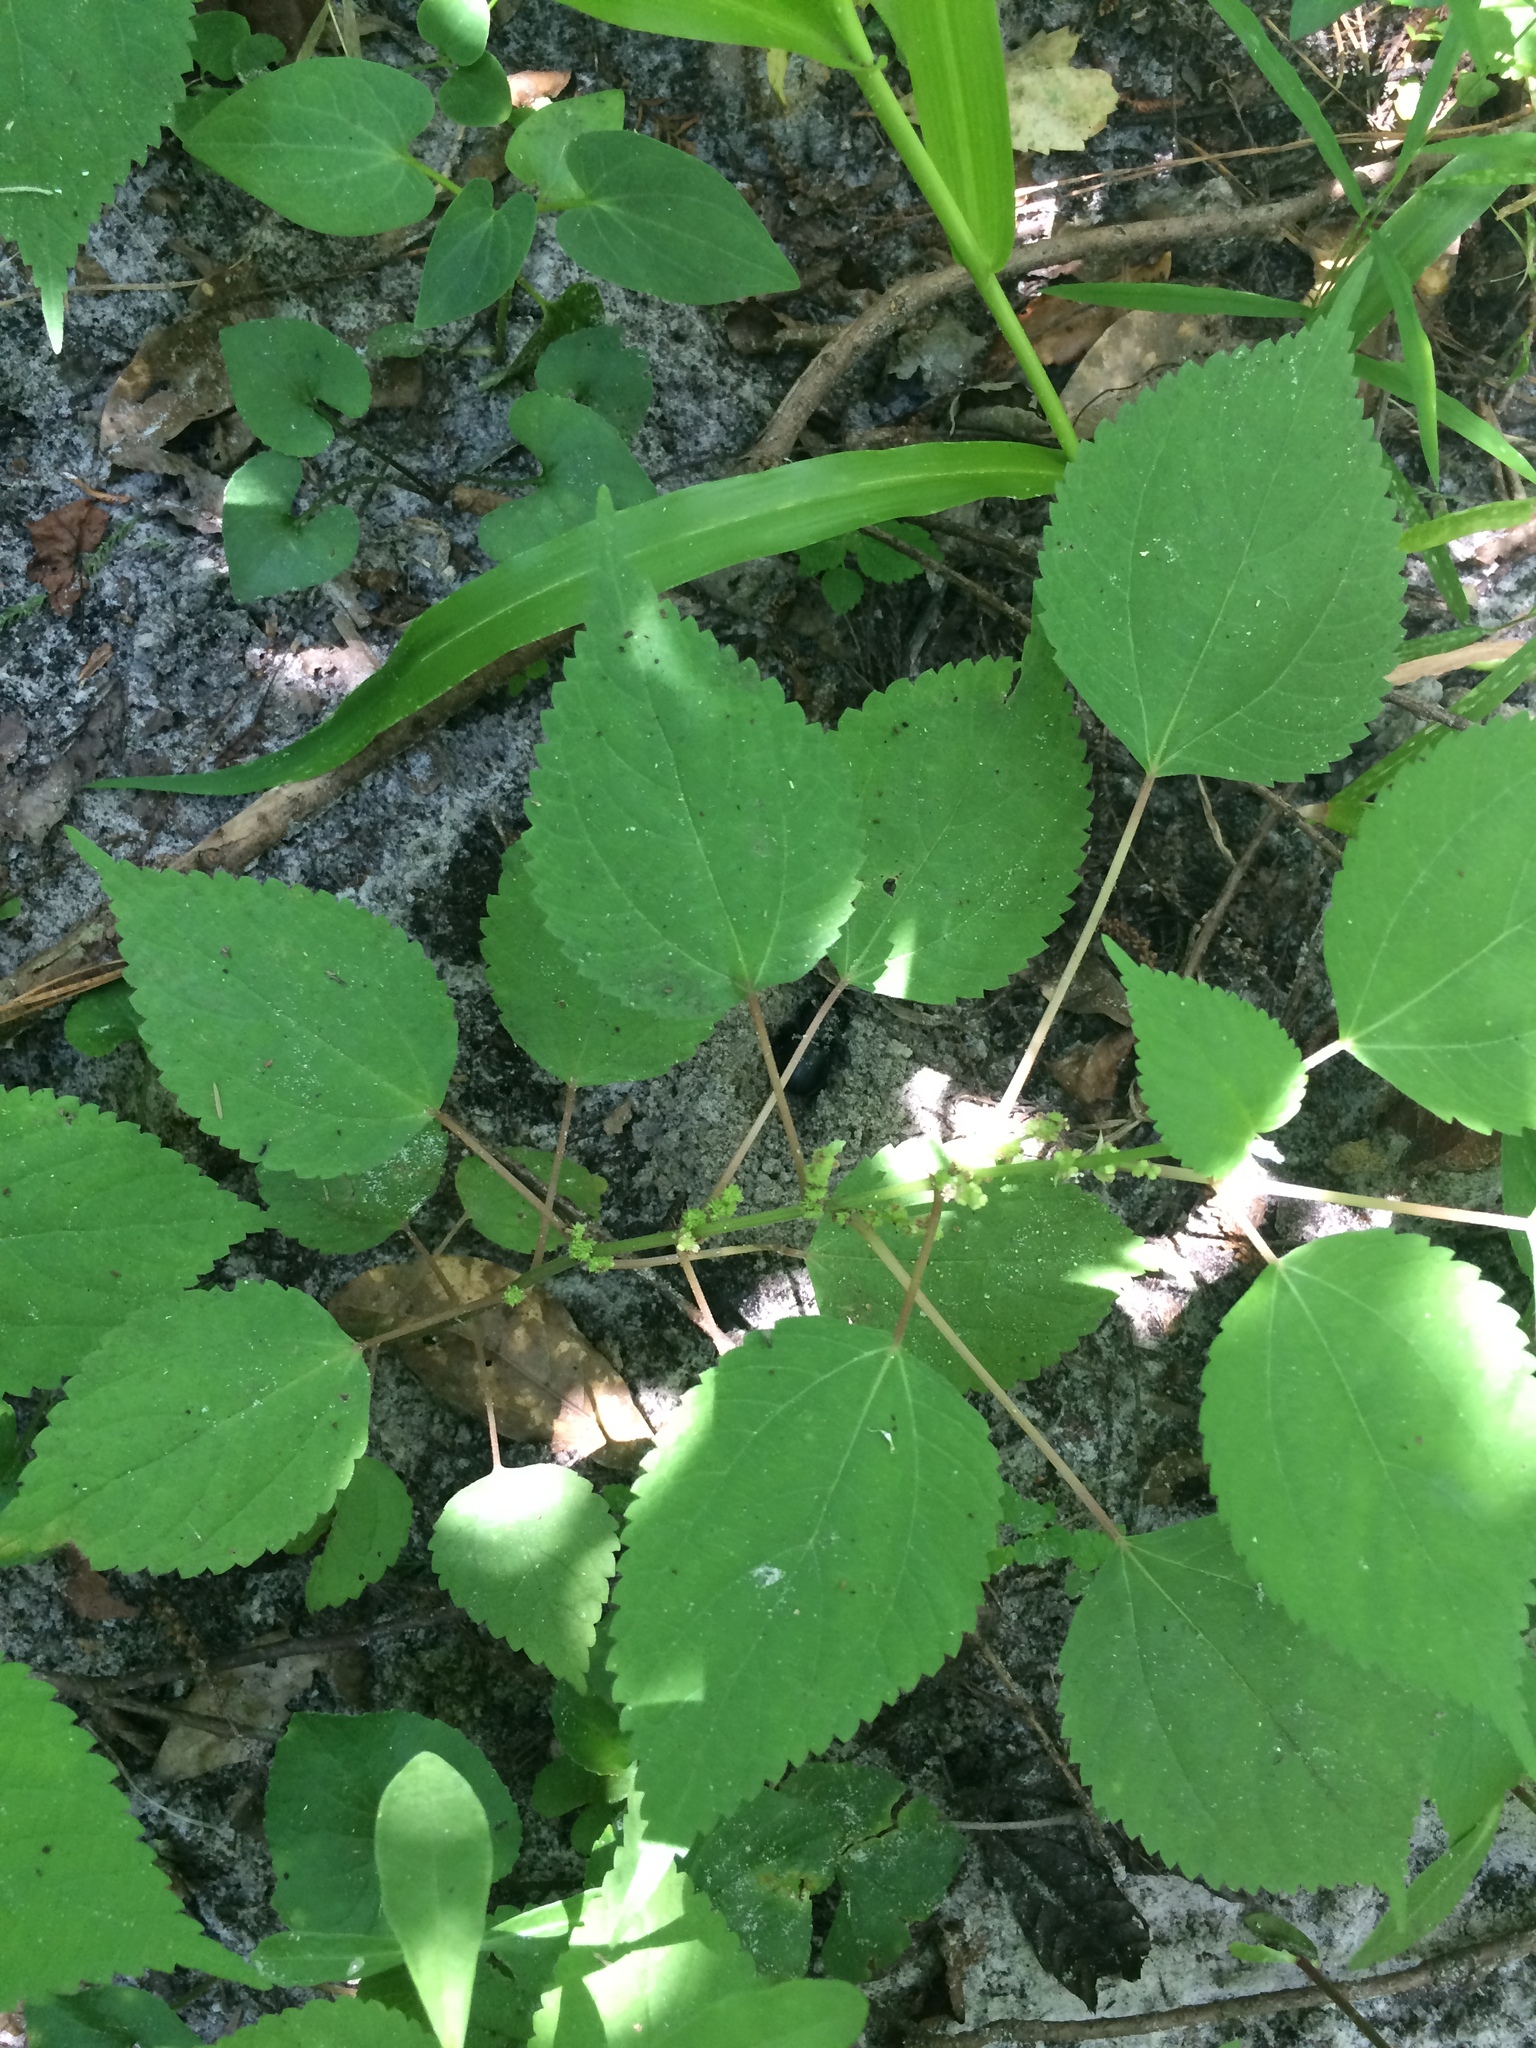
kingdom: Plantae
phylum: Tracheophyta
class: Magnoliopsida
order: Rosales
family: Urticaceae
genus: Boehmeria
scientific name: Boehmeria cylindrica
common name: Bog-hemp
